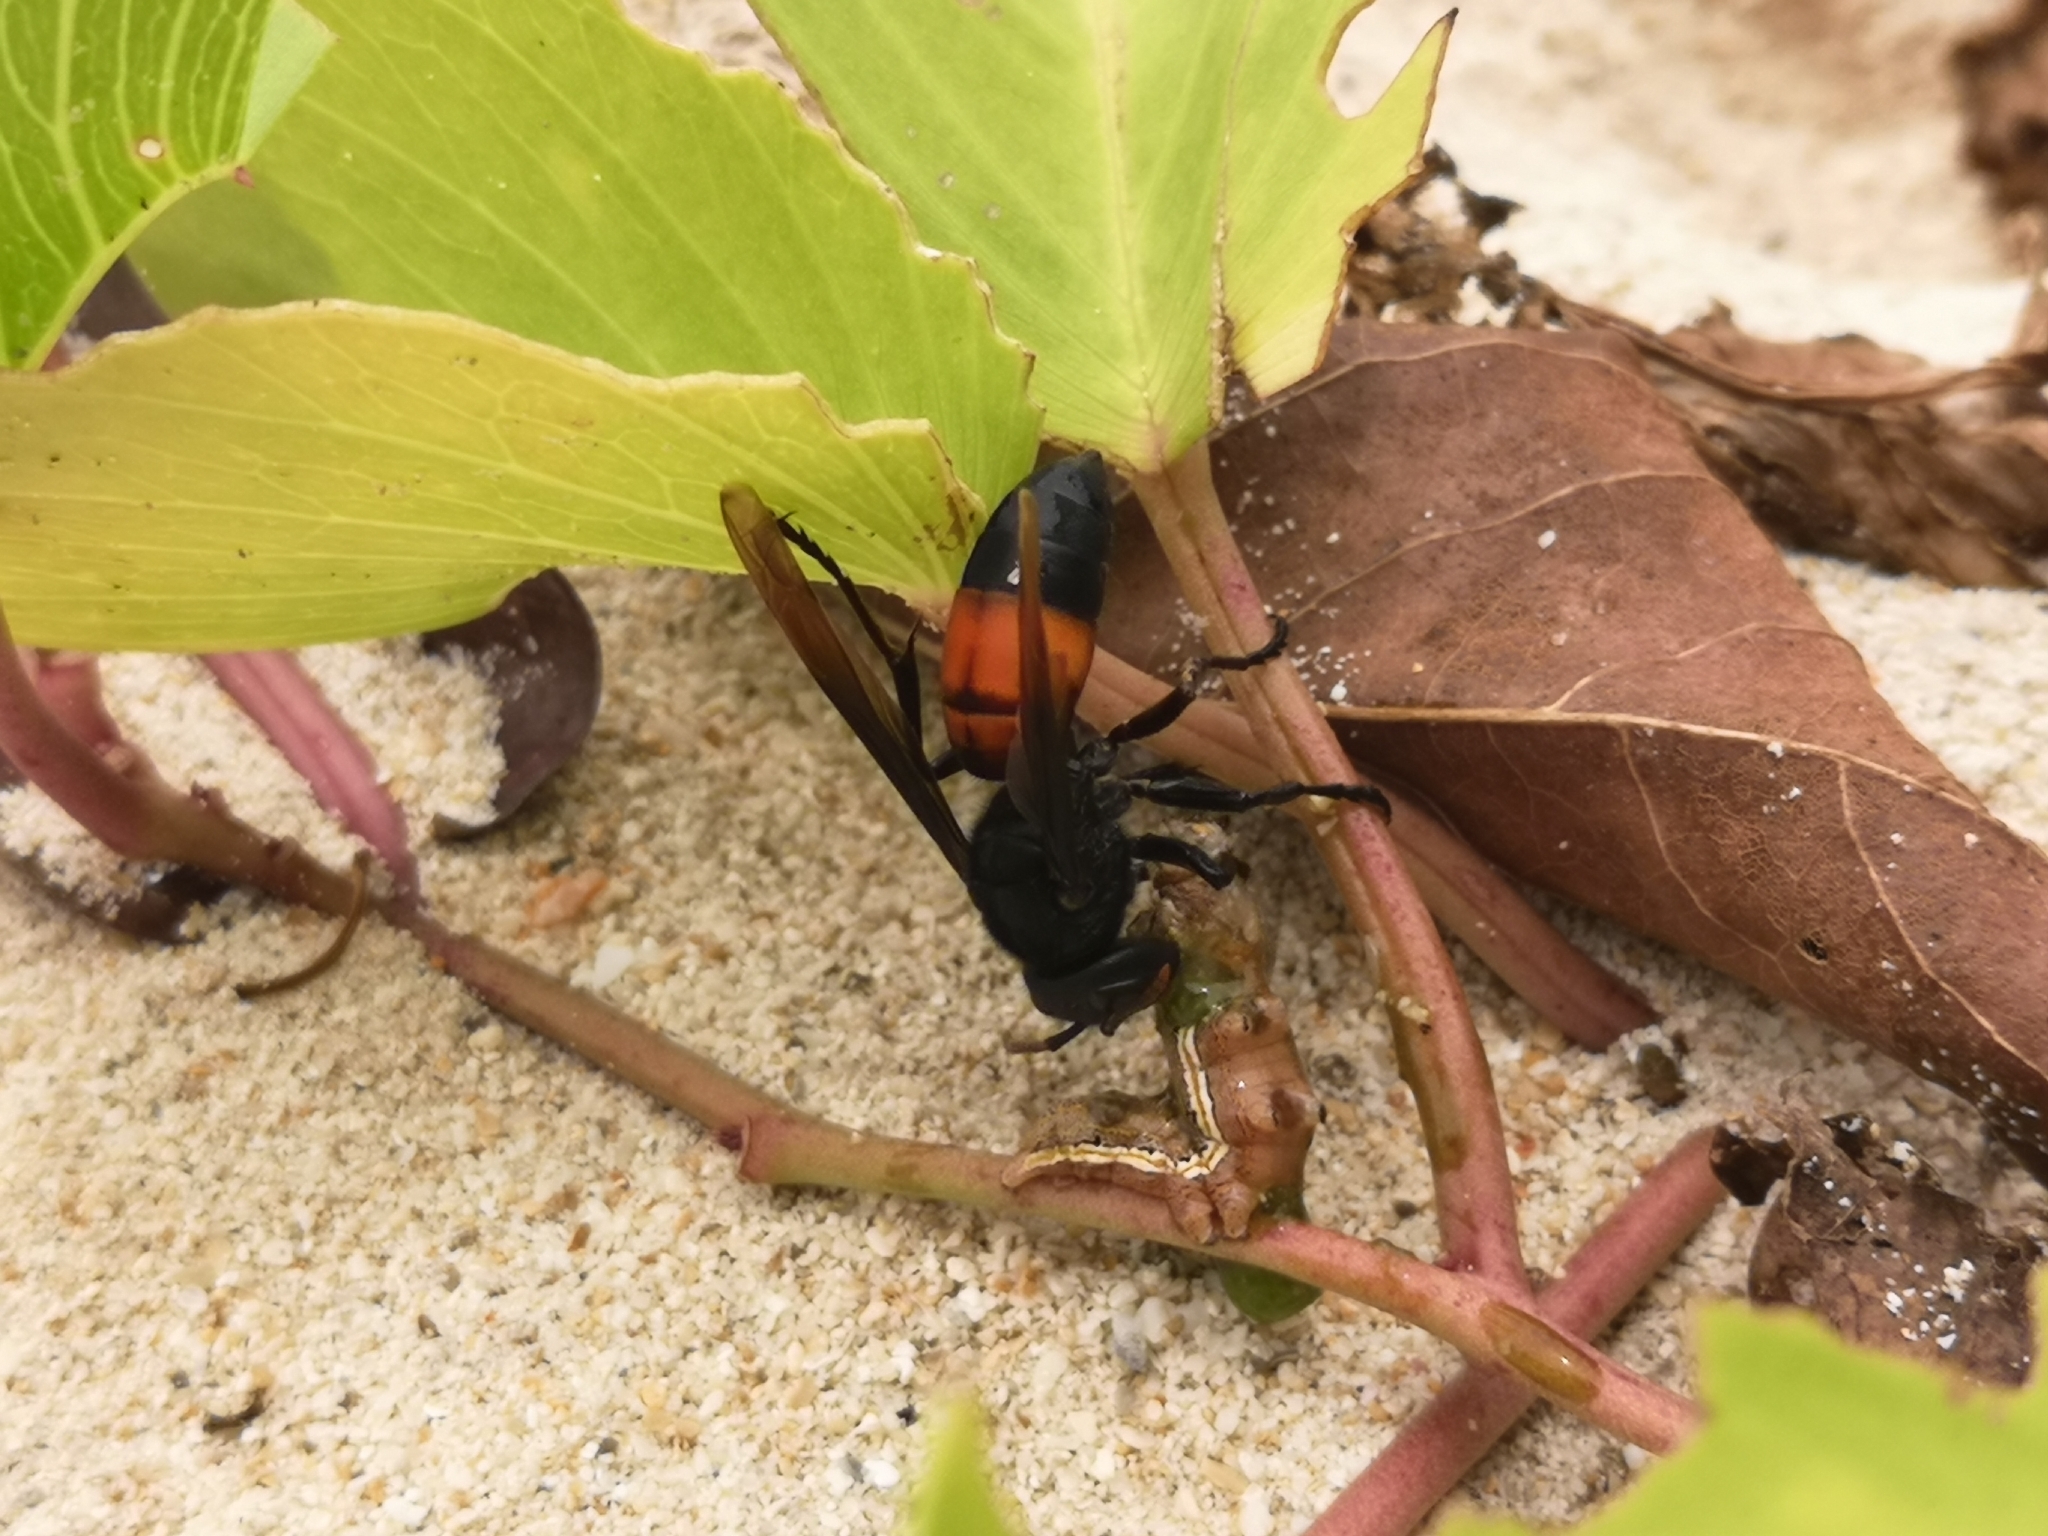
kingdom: Animalia
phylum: Arthropoda
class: Insecta
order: Hymenoptera
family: Vespidae
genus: Vespa
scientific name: Vespa affinis
